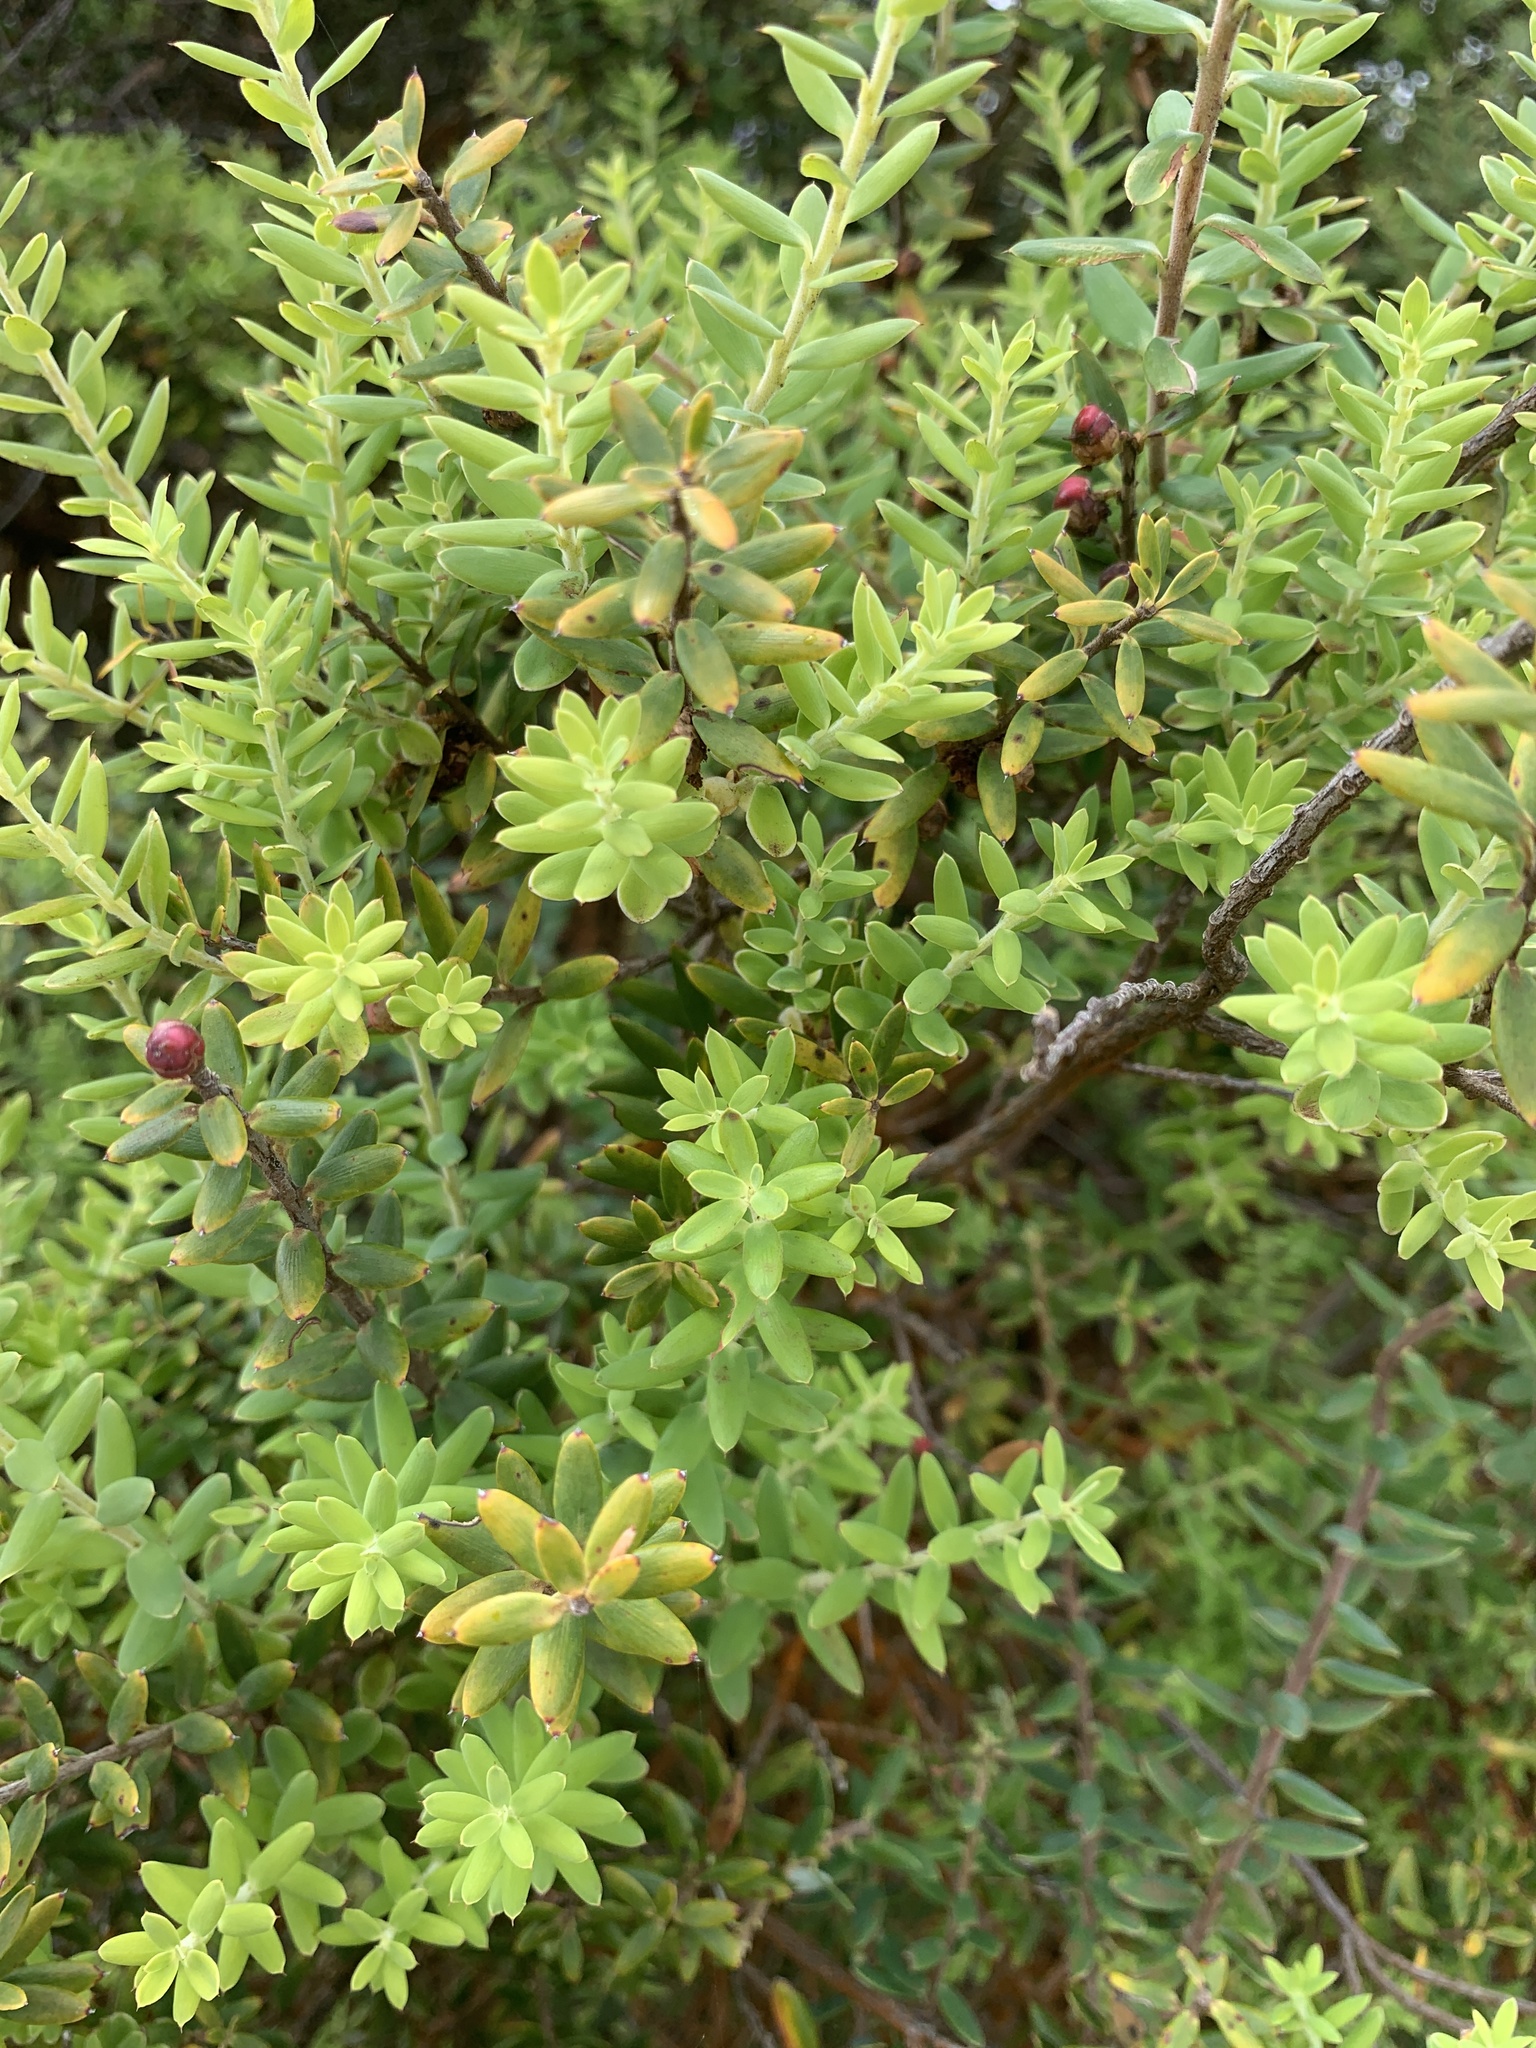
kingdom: Plantae
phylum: Tracheophyta
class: Magnoliopsida
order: Ericales
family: Ericaceae
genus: Leptecophylla
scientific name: Leptecophylla tameiameiae
